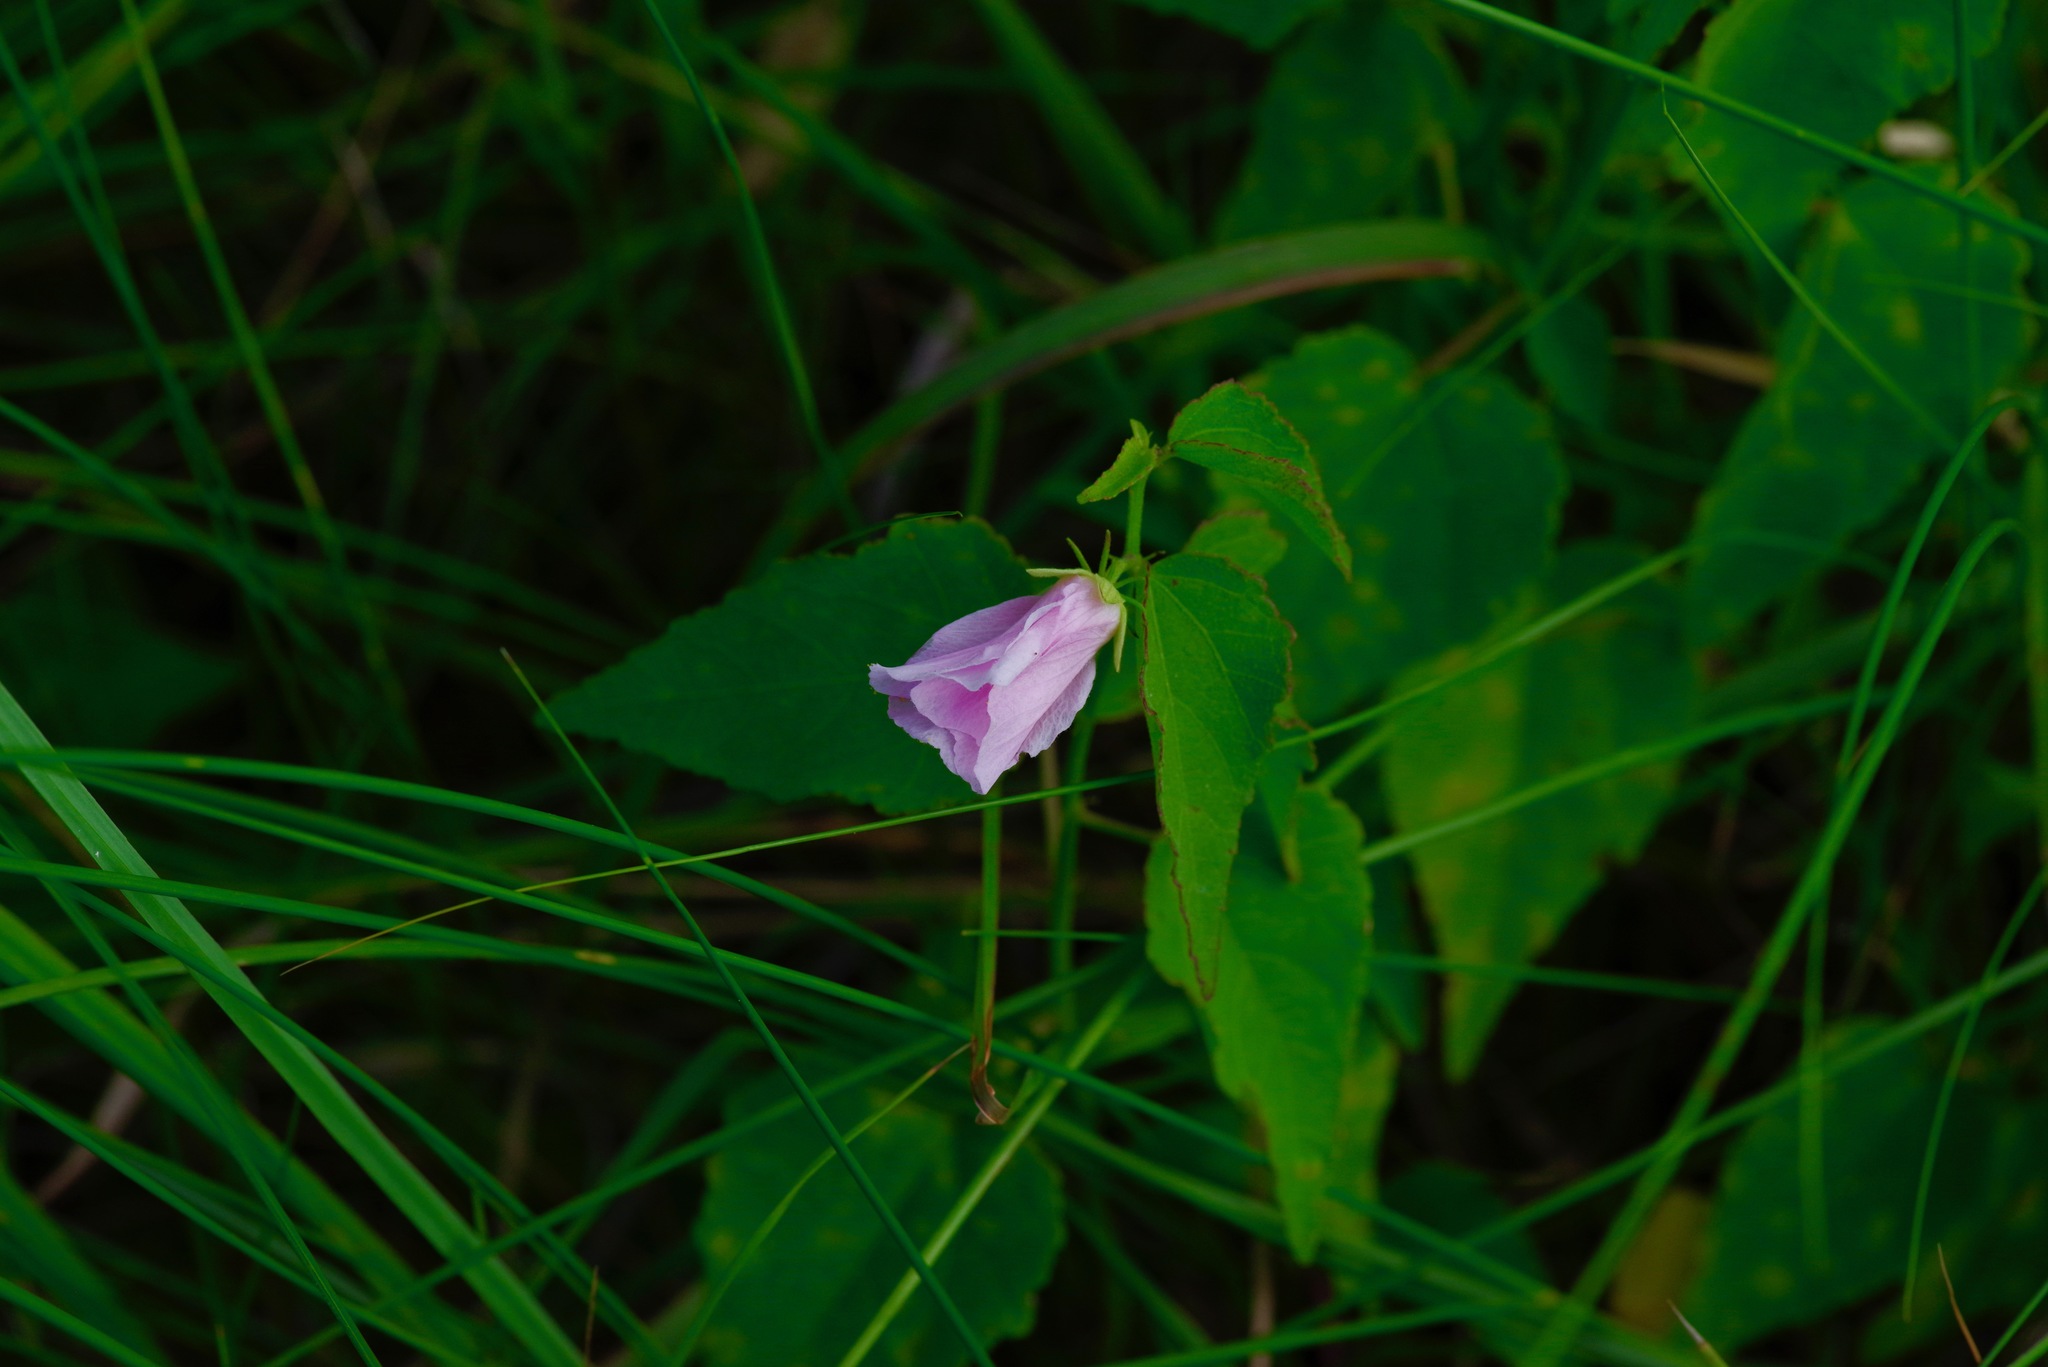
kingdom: Plantae
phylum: Tracheophyta
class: Magnoliopsida
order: Malvales
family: Malvaceae
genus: Kosteletzkya
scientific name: Kosteletzkya pentacarpos
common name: Virginia saltmarsh mallow
